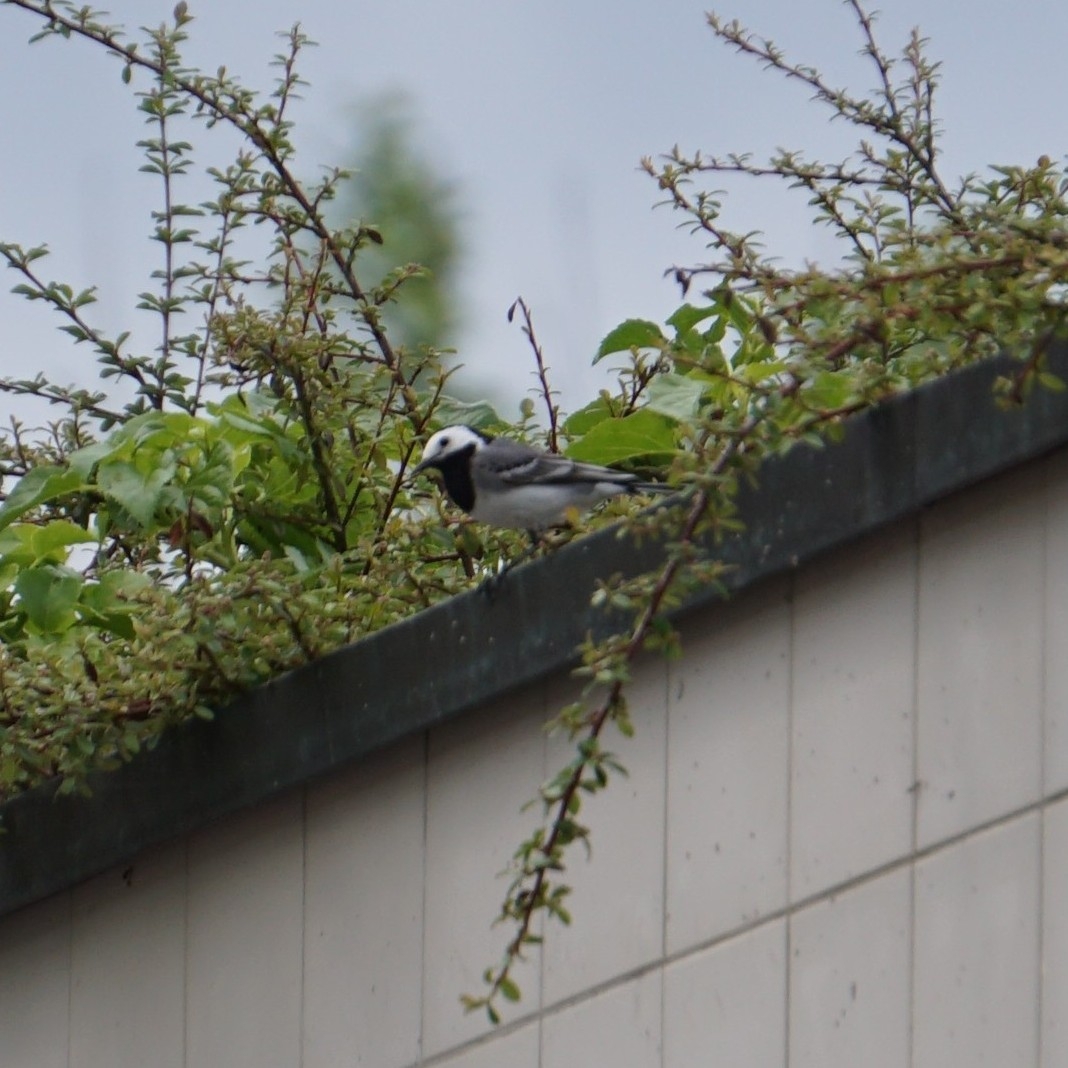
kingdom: Animalia
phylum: Chordata
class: Aves
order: Passeriformes
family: Motacillidae
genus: Motacilla
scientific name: Motacilla alba
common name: White wagtail
